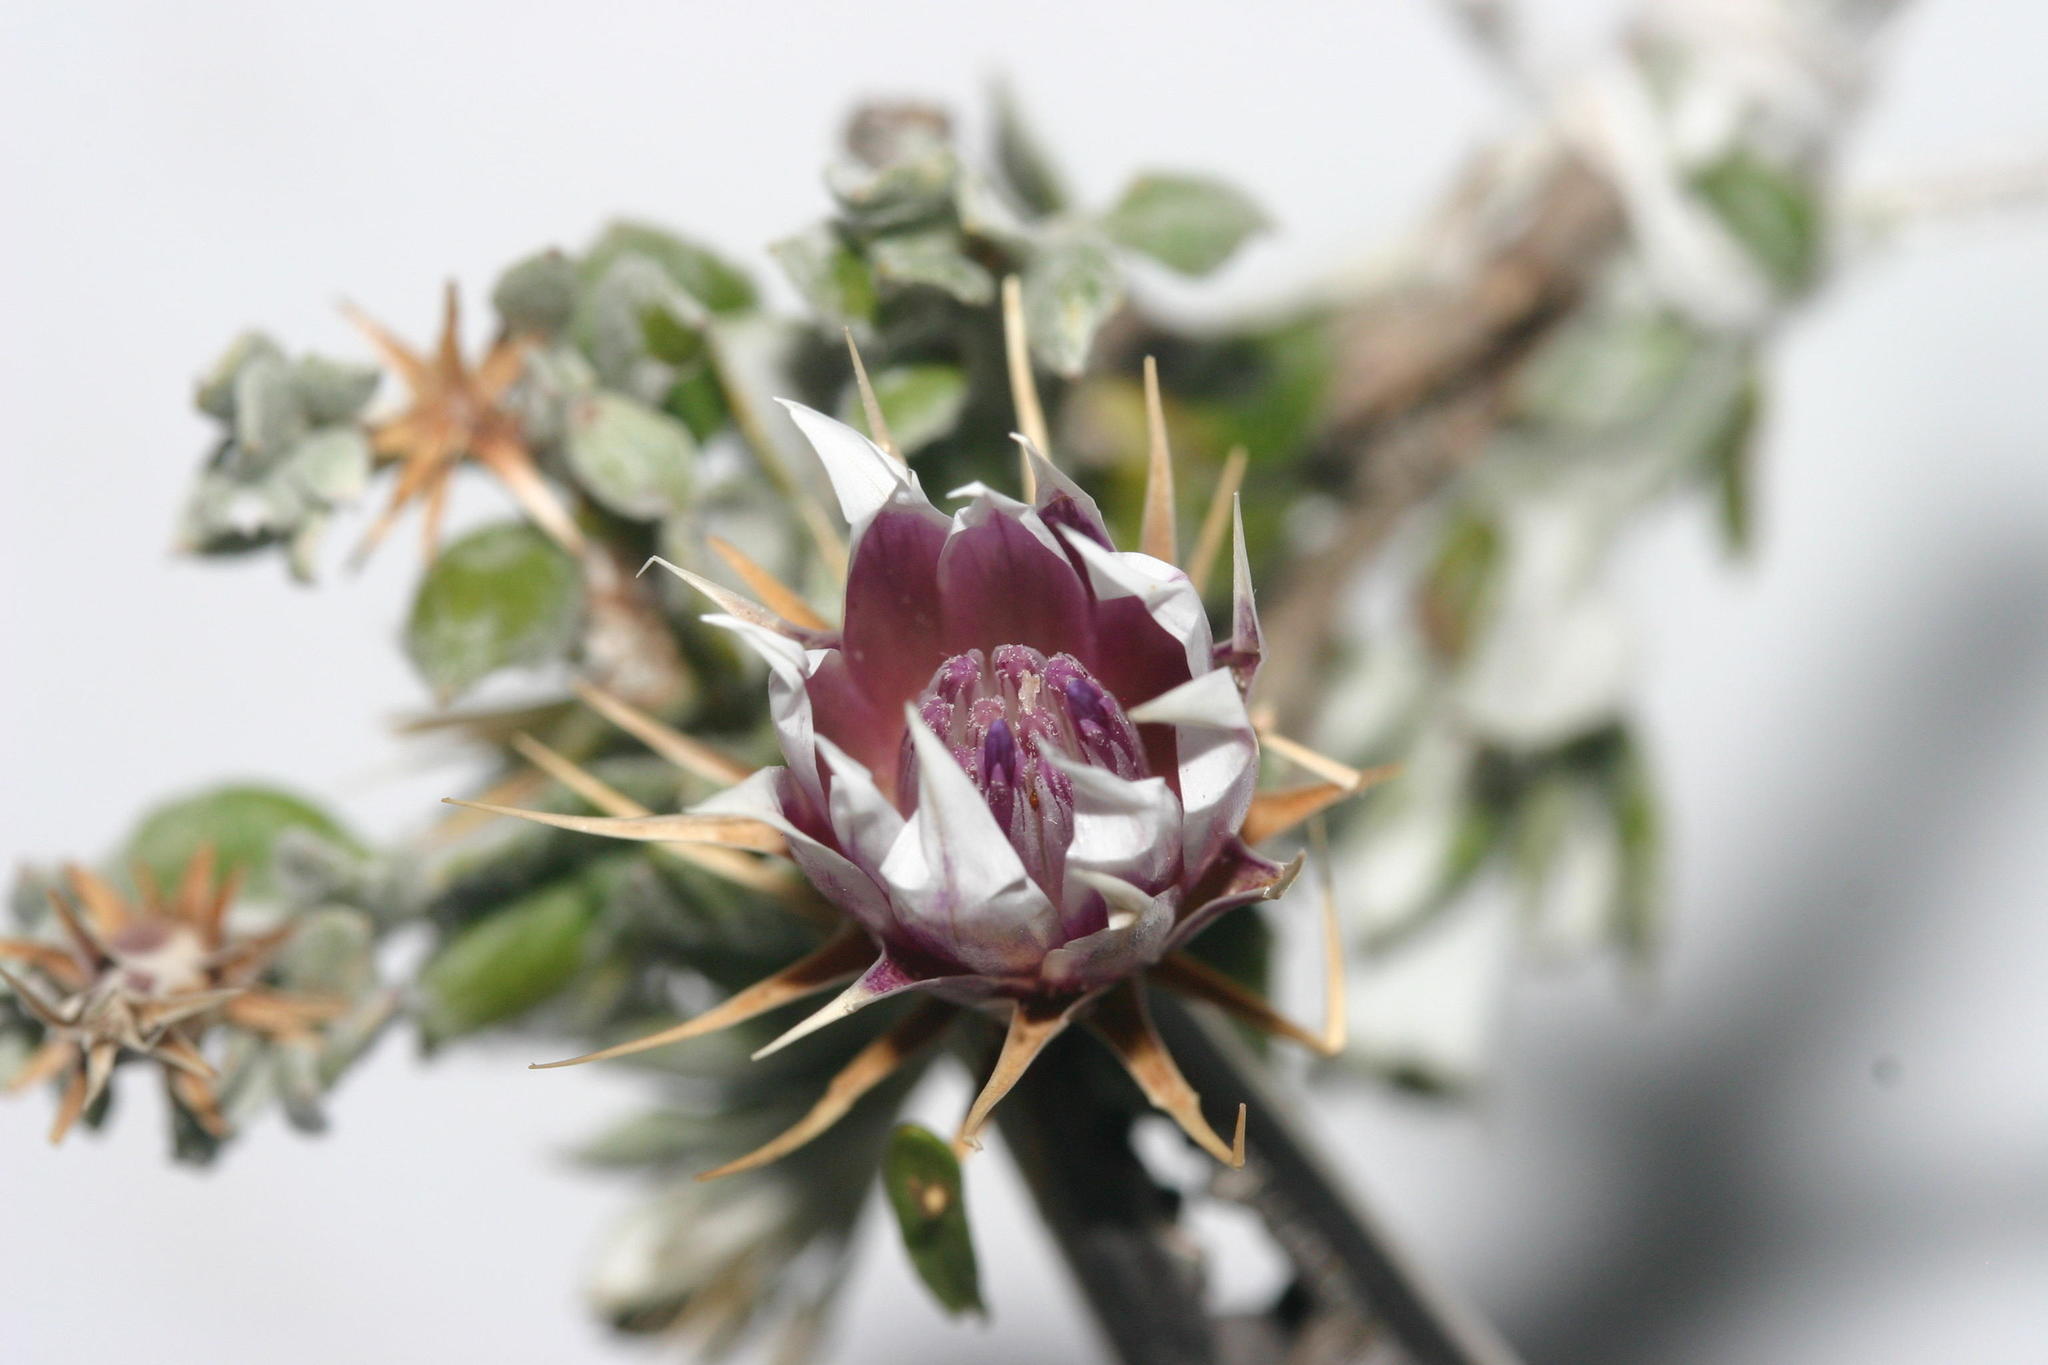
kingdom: Plantae
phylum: Tracheophyta
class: Magnoliopsida
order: Asterales
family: Asteraceae
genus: Macledium
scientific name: Macledium spinosum
